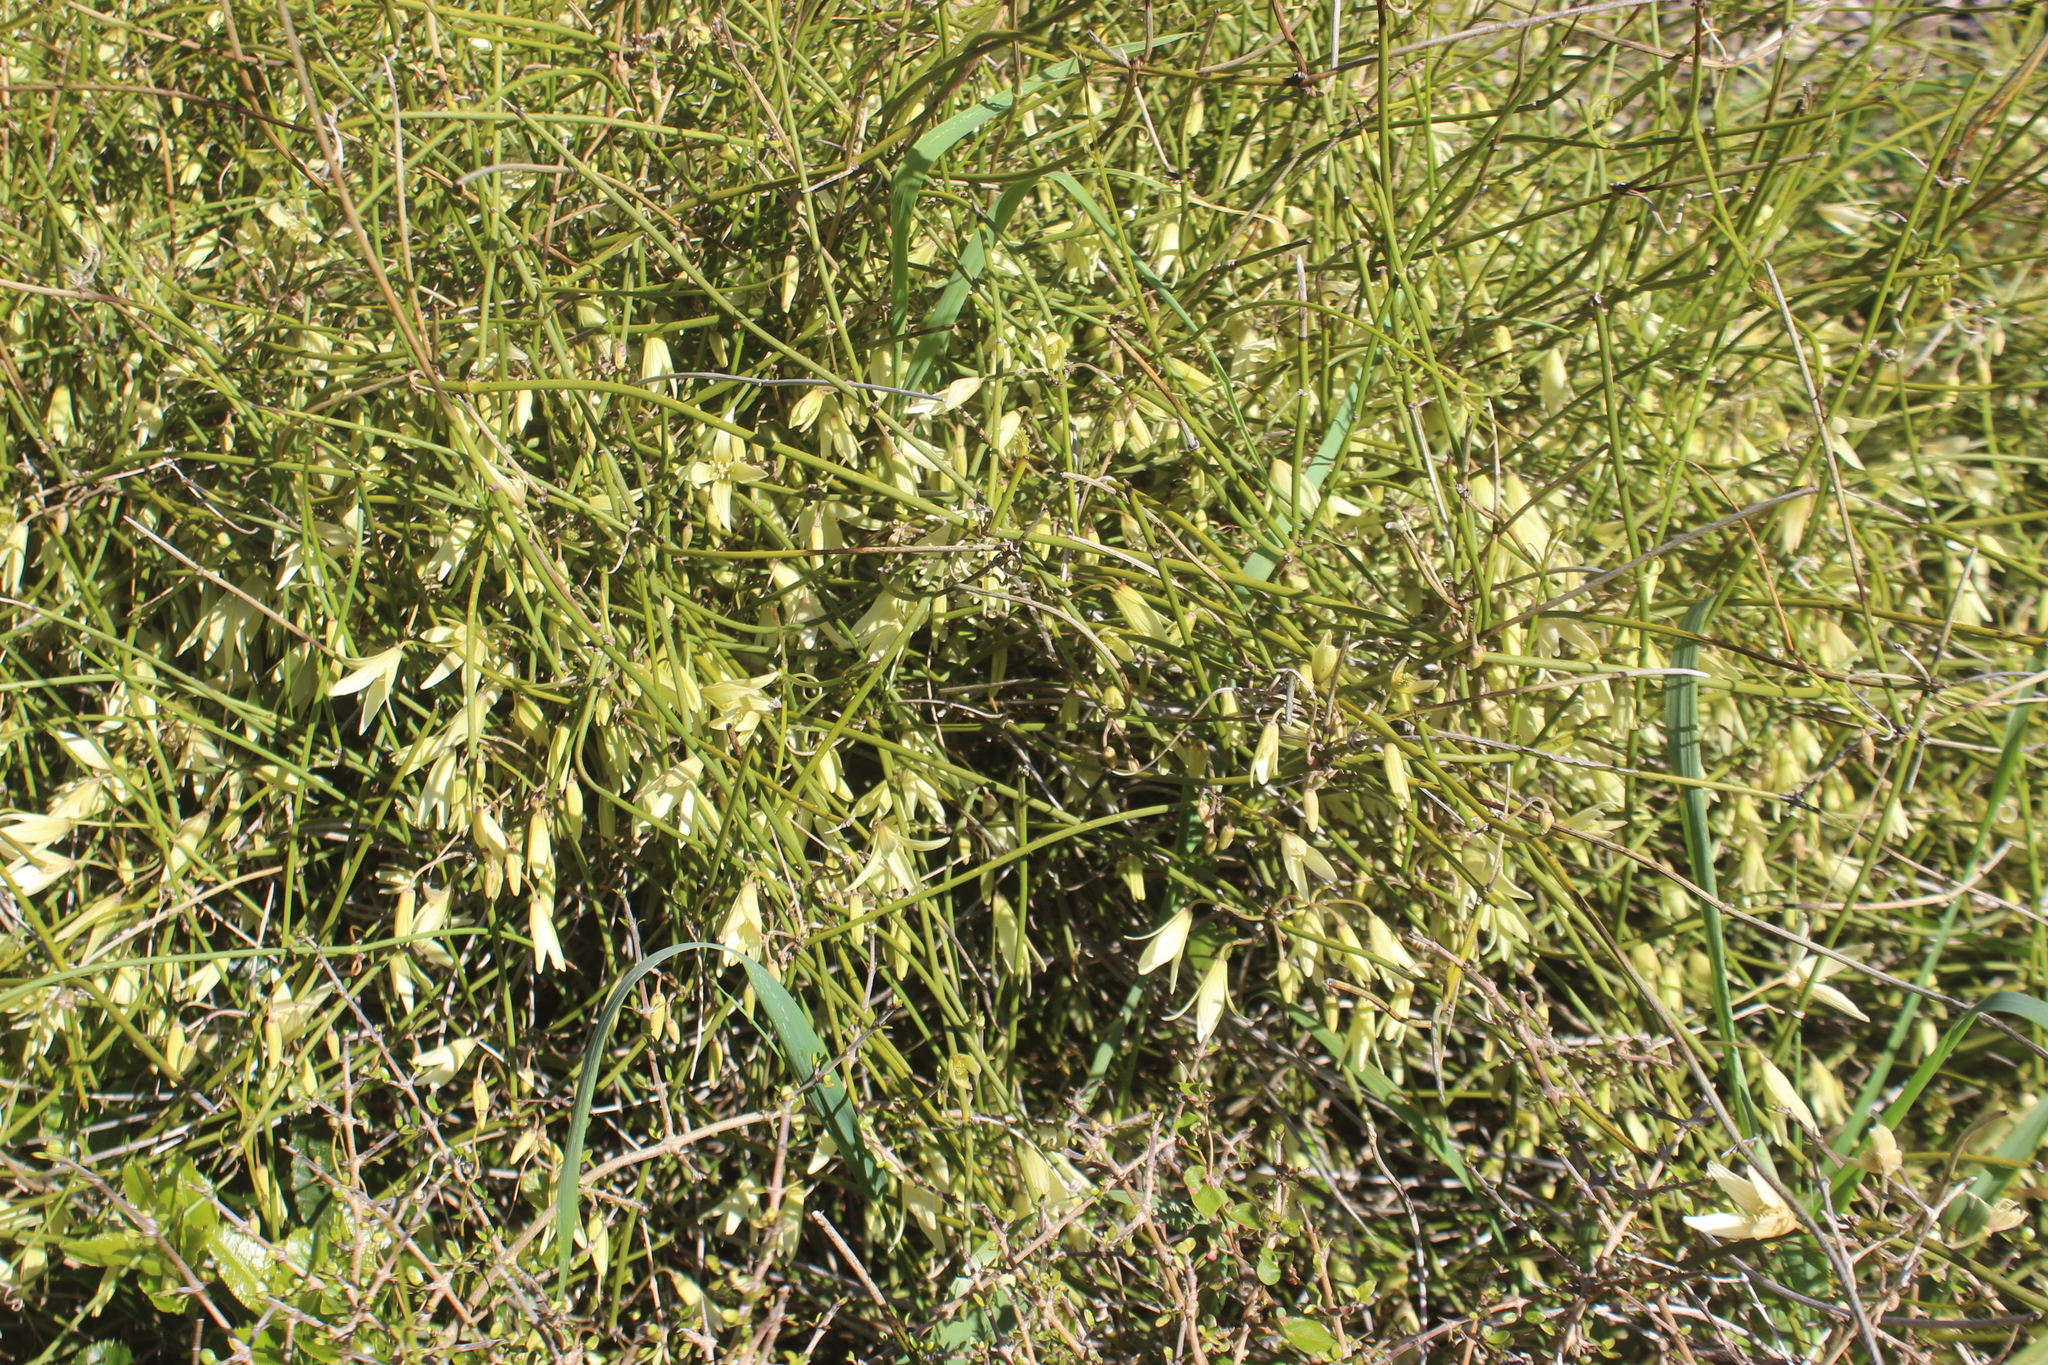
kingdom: Plantae
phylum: Tracheophyta
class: Magnoliopsida
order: Ranunculales
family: Ranunculaceae
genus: Clematis
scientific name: Clematis afoliata
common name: Rush-stem clematis
